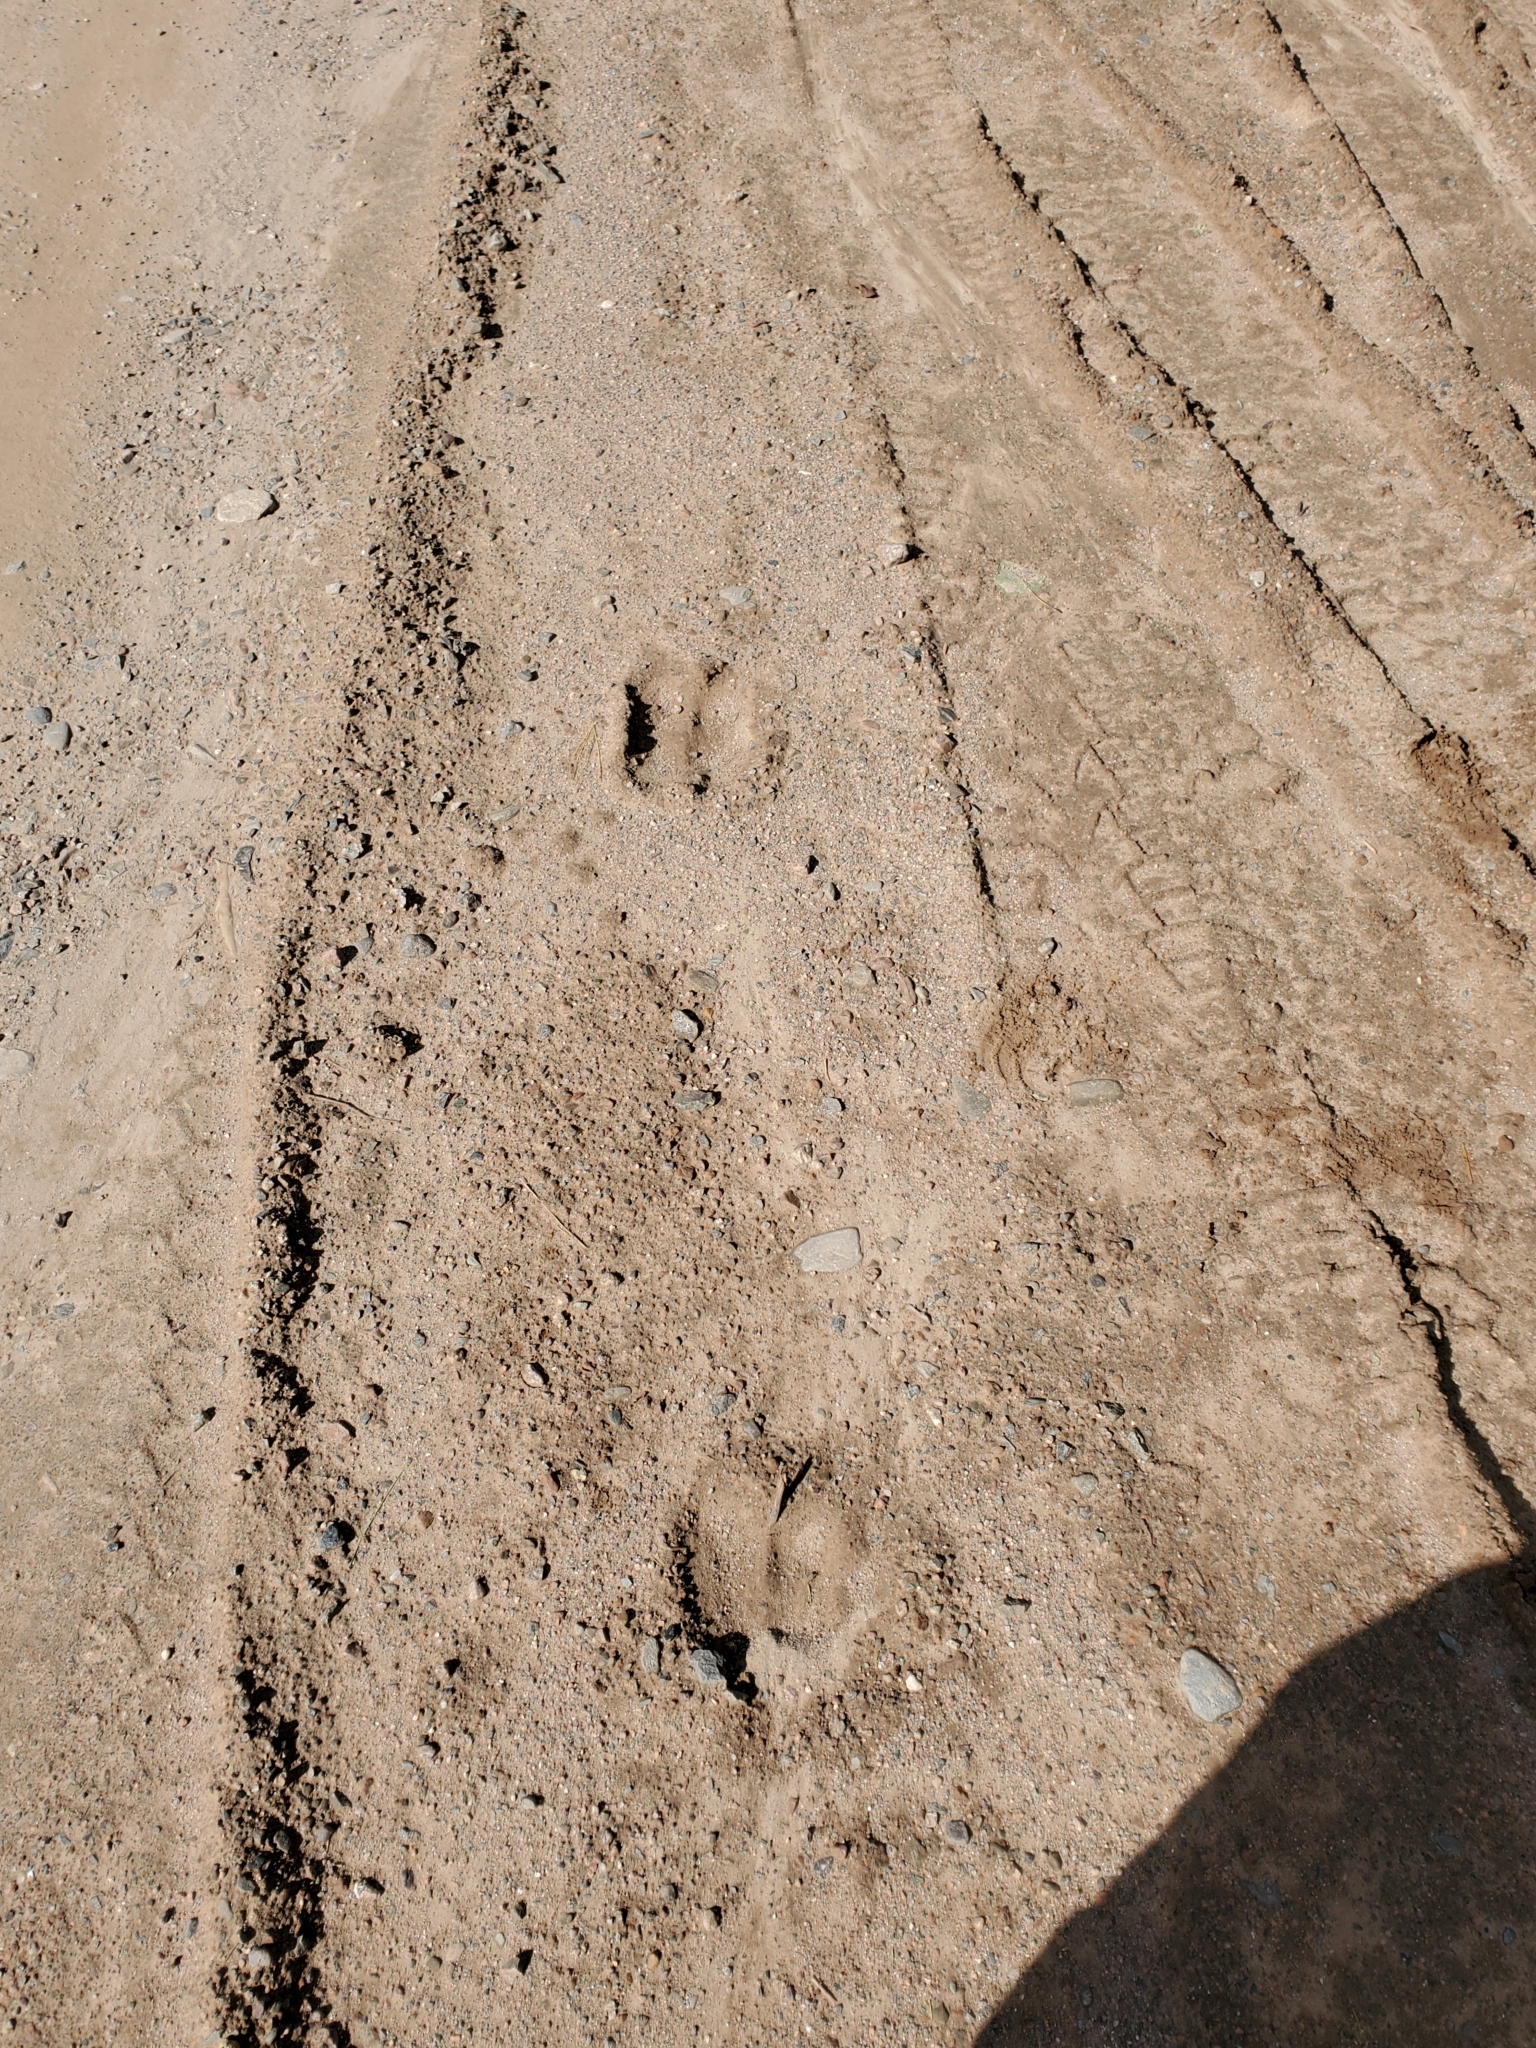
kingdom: Animalia
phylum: Chordata
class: Mammalia
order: Artiodactyla
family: Cervidae
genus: Alces
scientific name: Alces alces
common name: Moose
